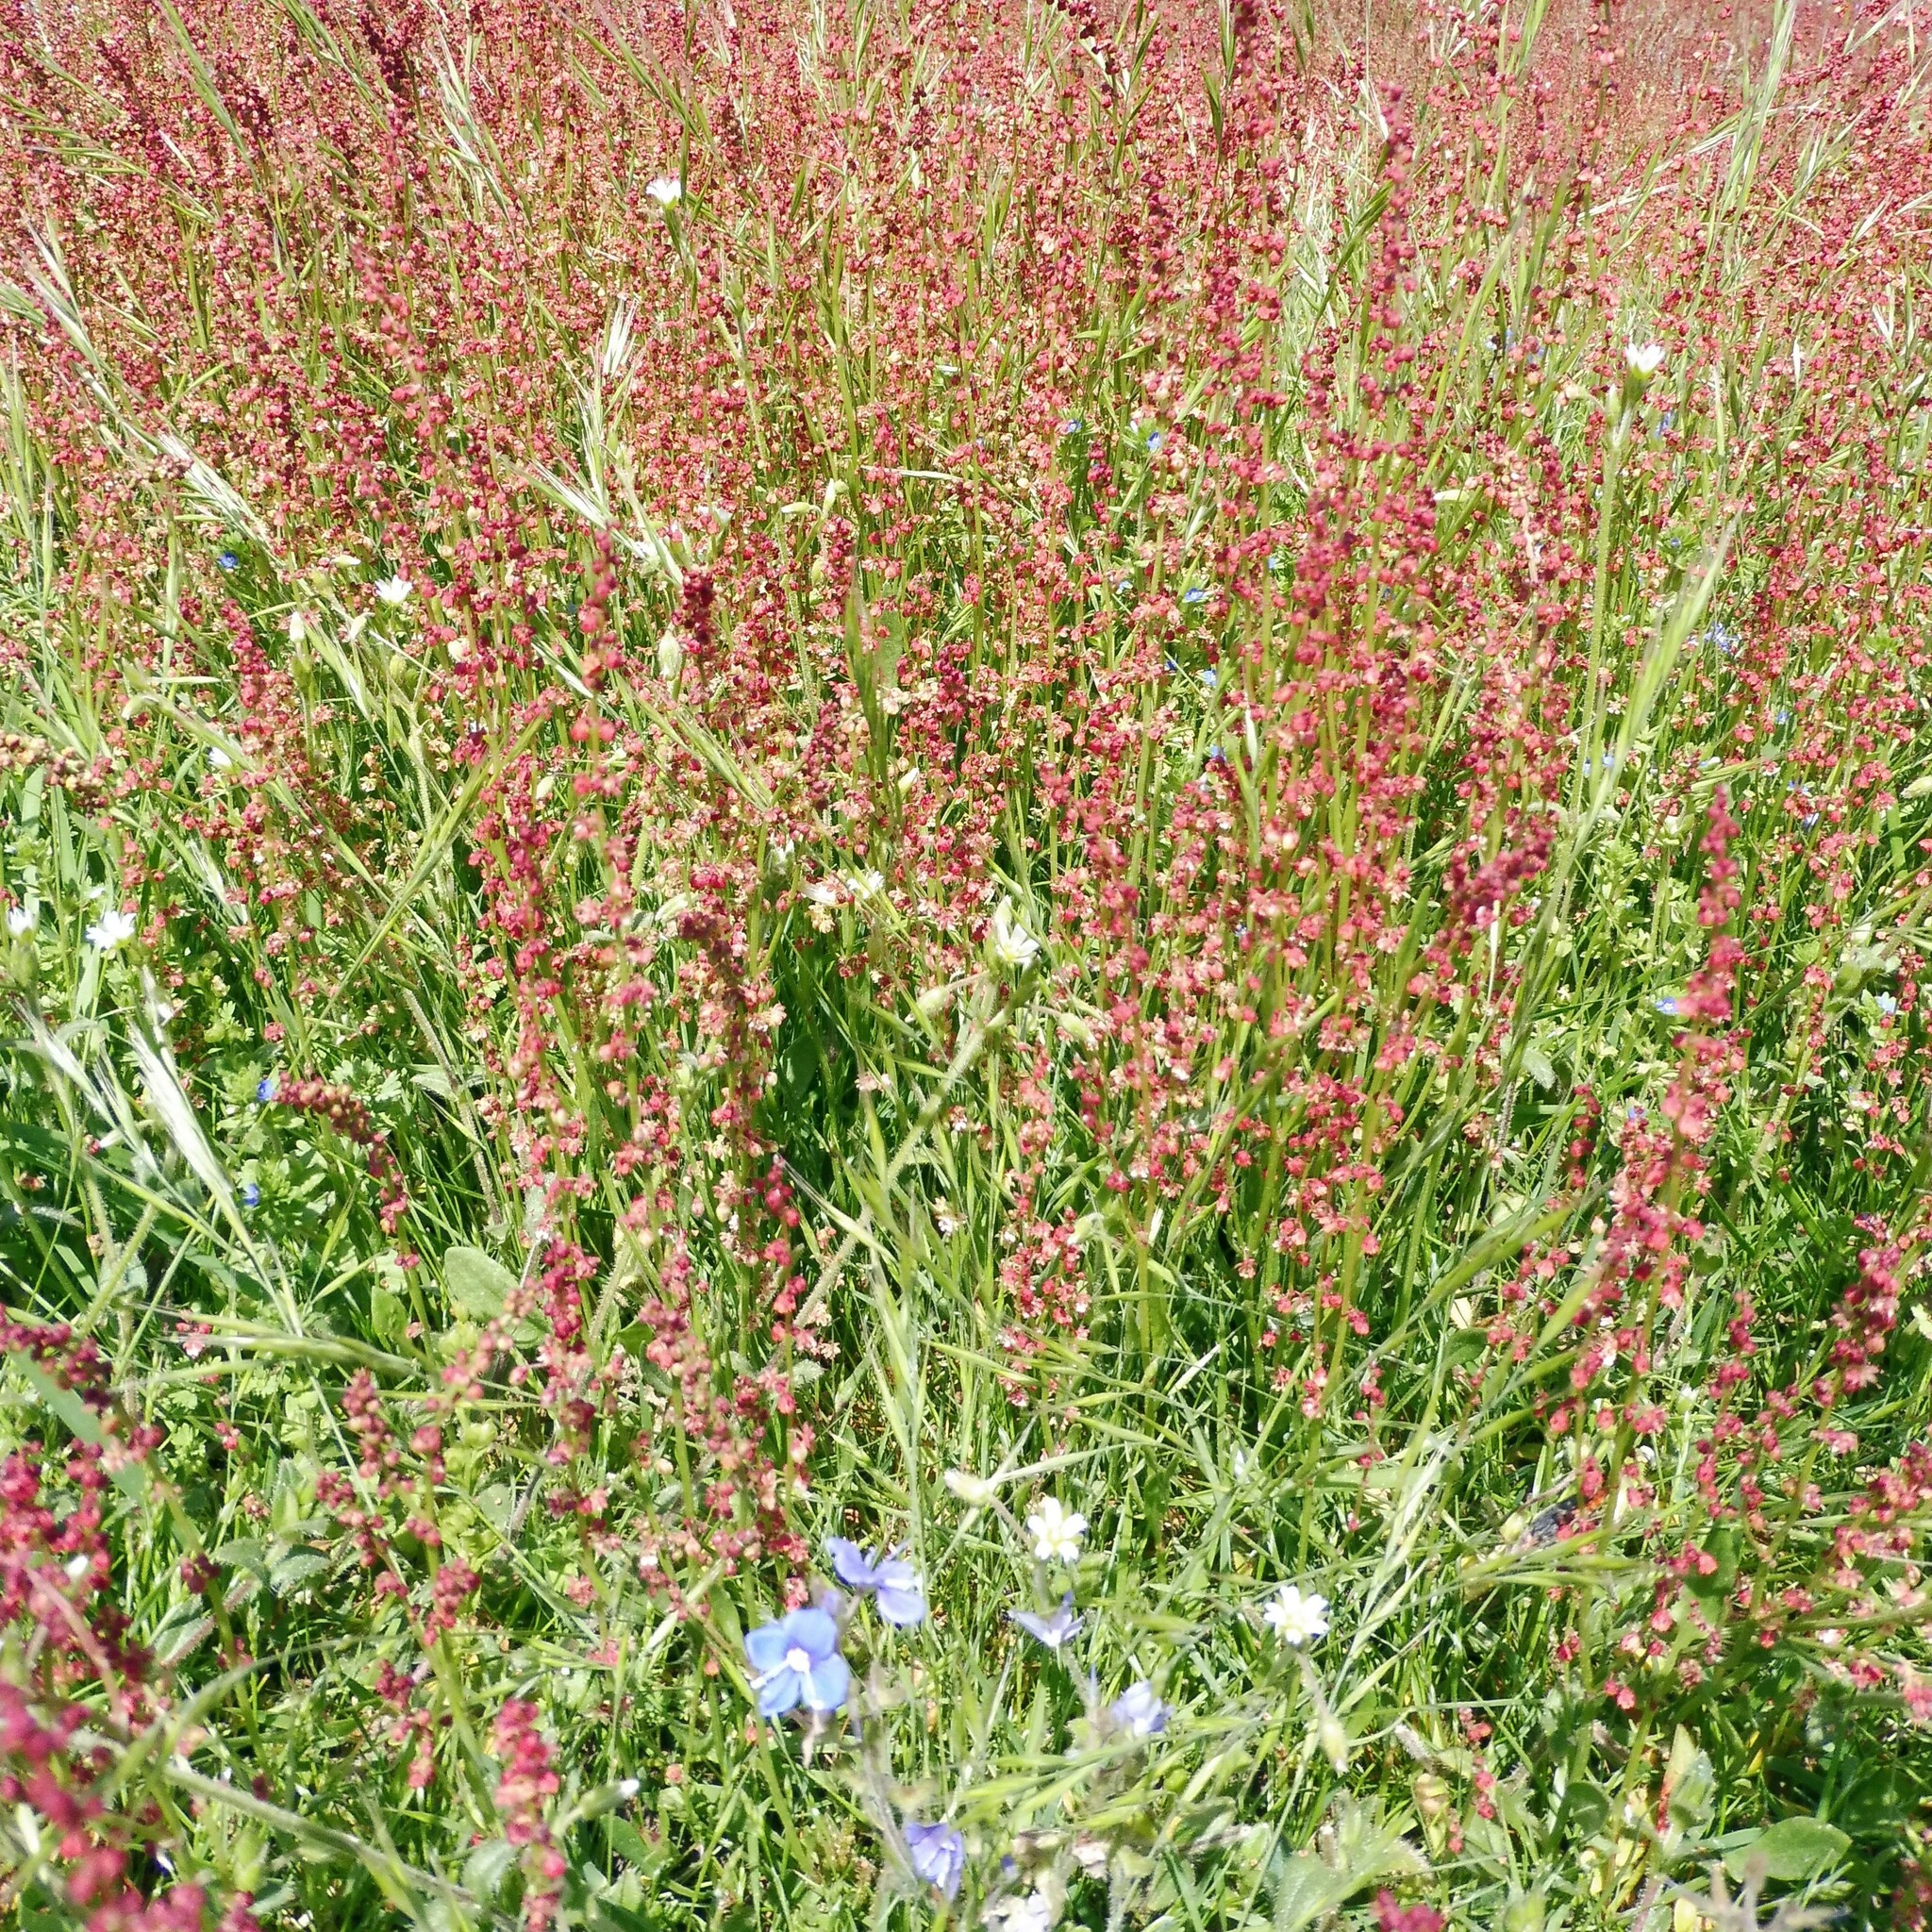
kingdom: Plantae
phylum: Tracheophyta
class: Magnoliopsida
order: Caryophyllales
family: Polygonaceae
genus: Rumex
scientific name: Rumex acetosella
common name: Common sheep sorrel
